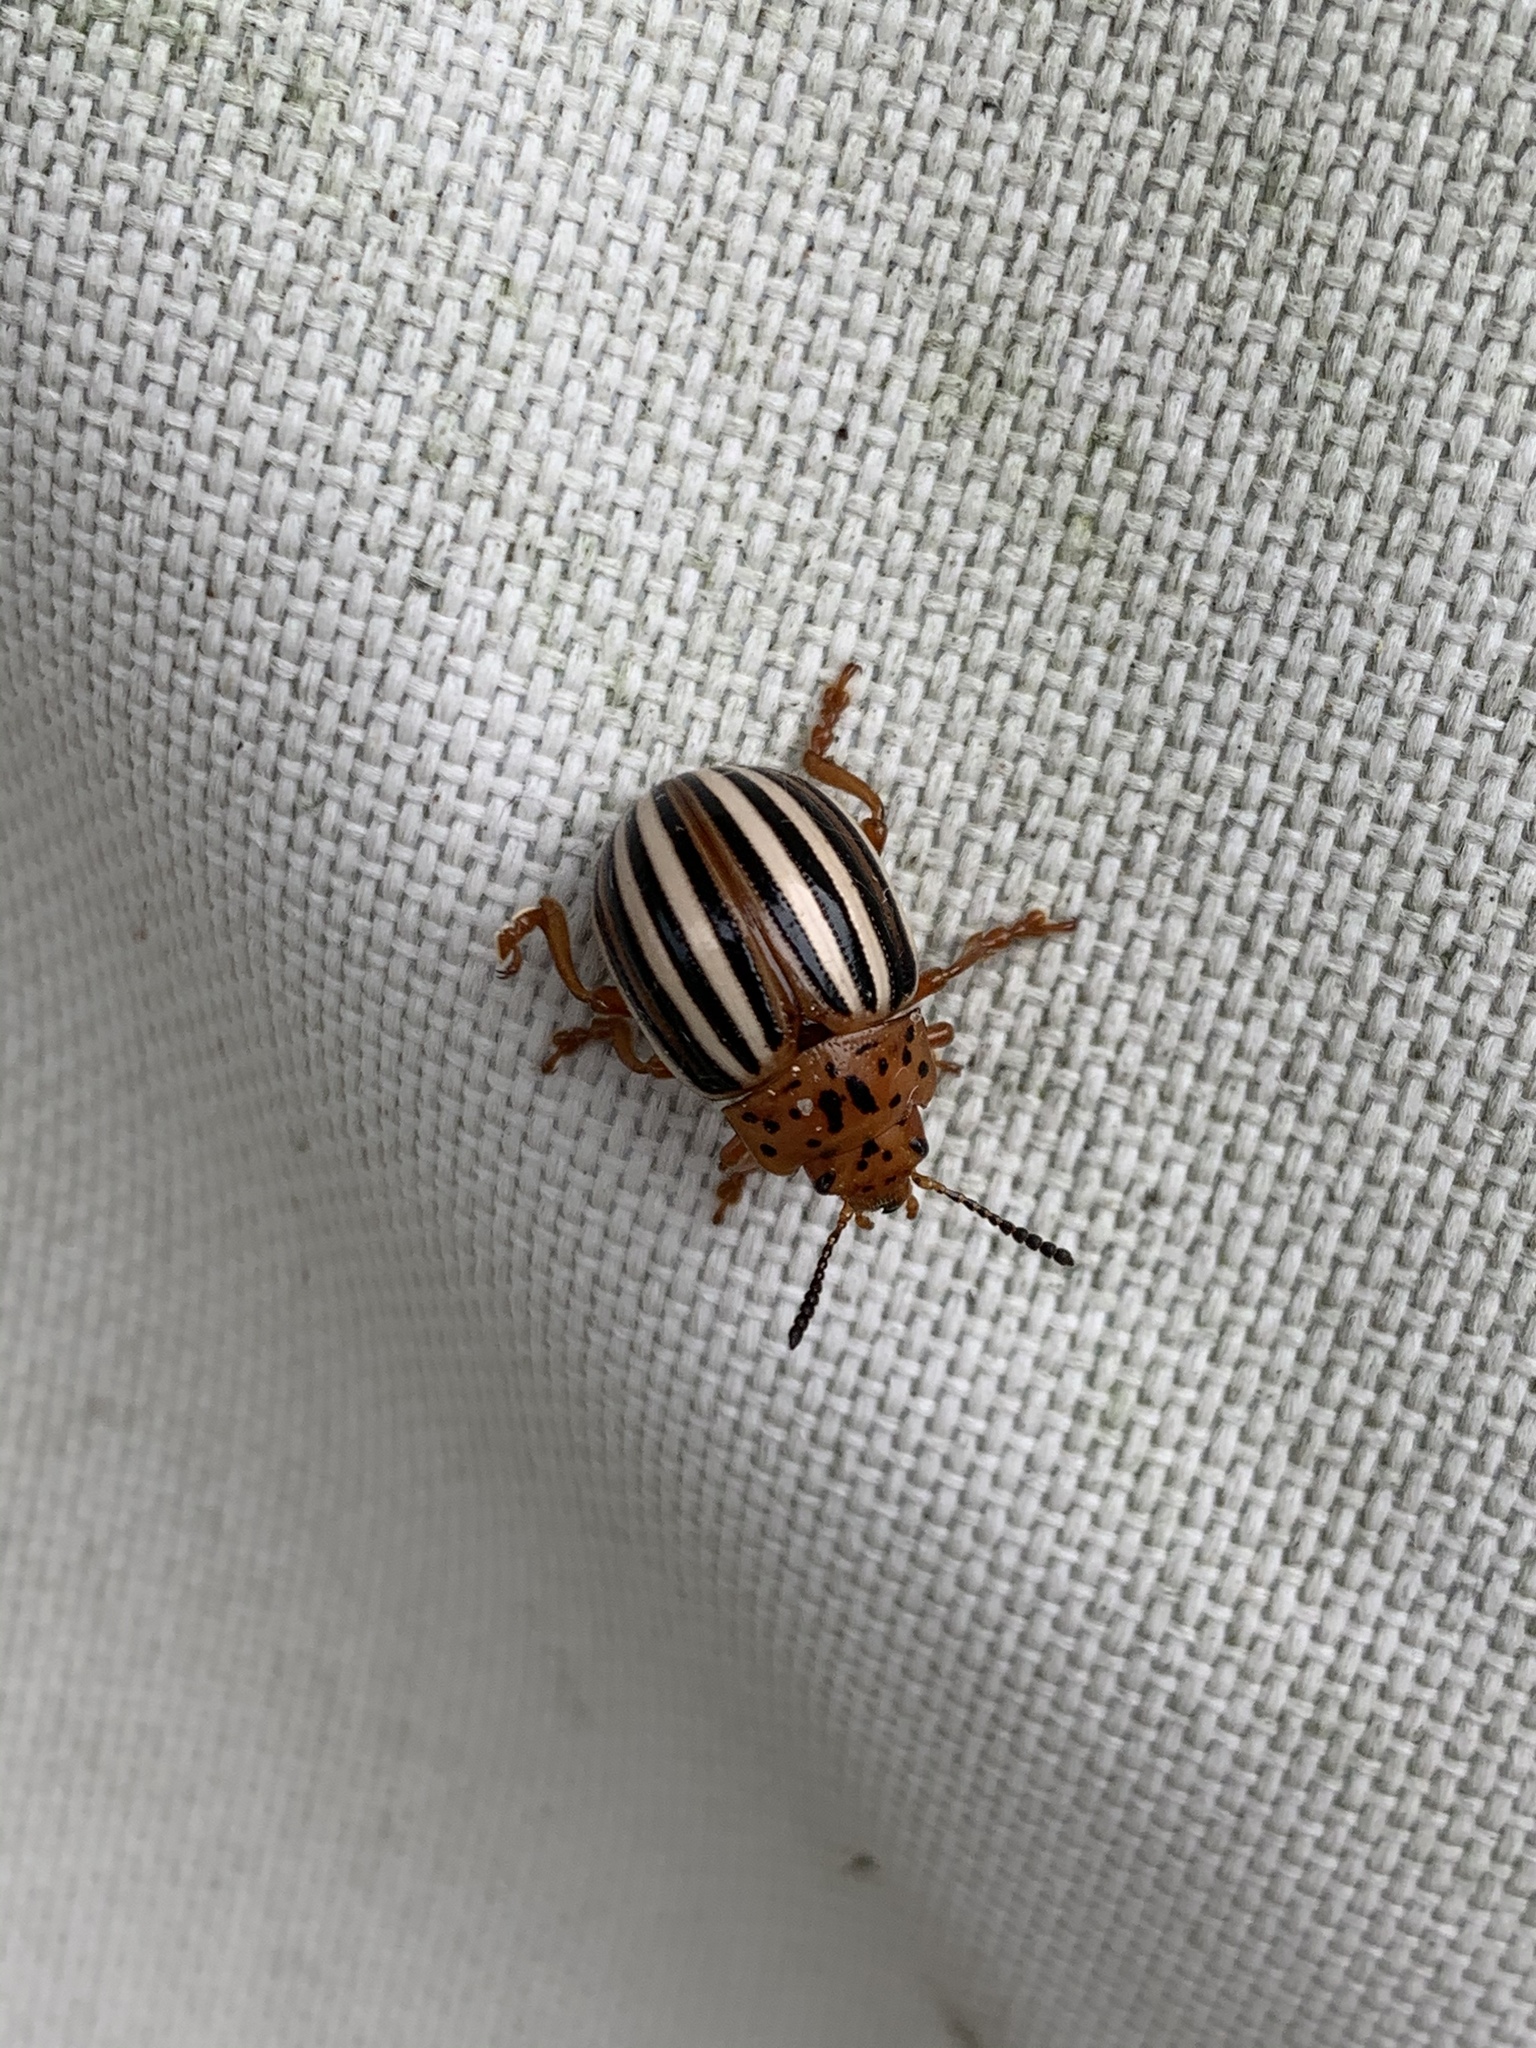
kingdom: Animalia
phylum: Arthropoda
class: Insecta
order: Coleoptera
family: Chrysomelidae
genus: Leptinotarsa
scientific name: Leptinotarsa juncta
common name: False potato beetle
